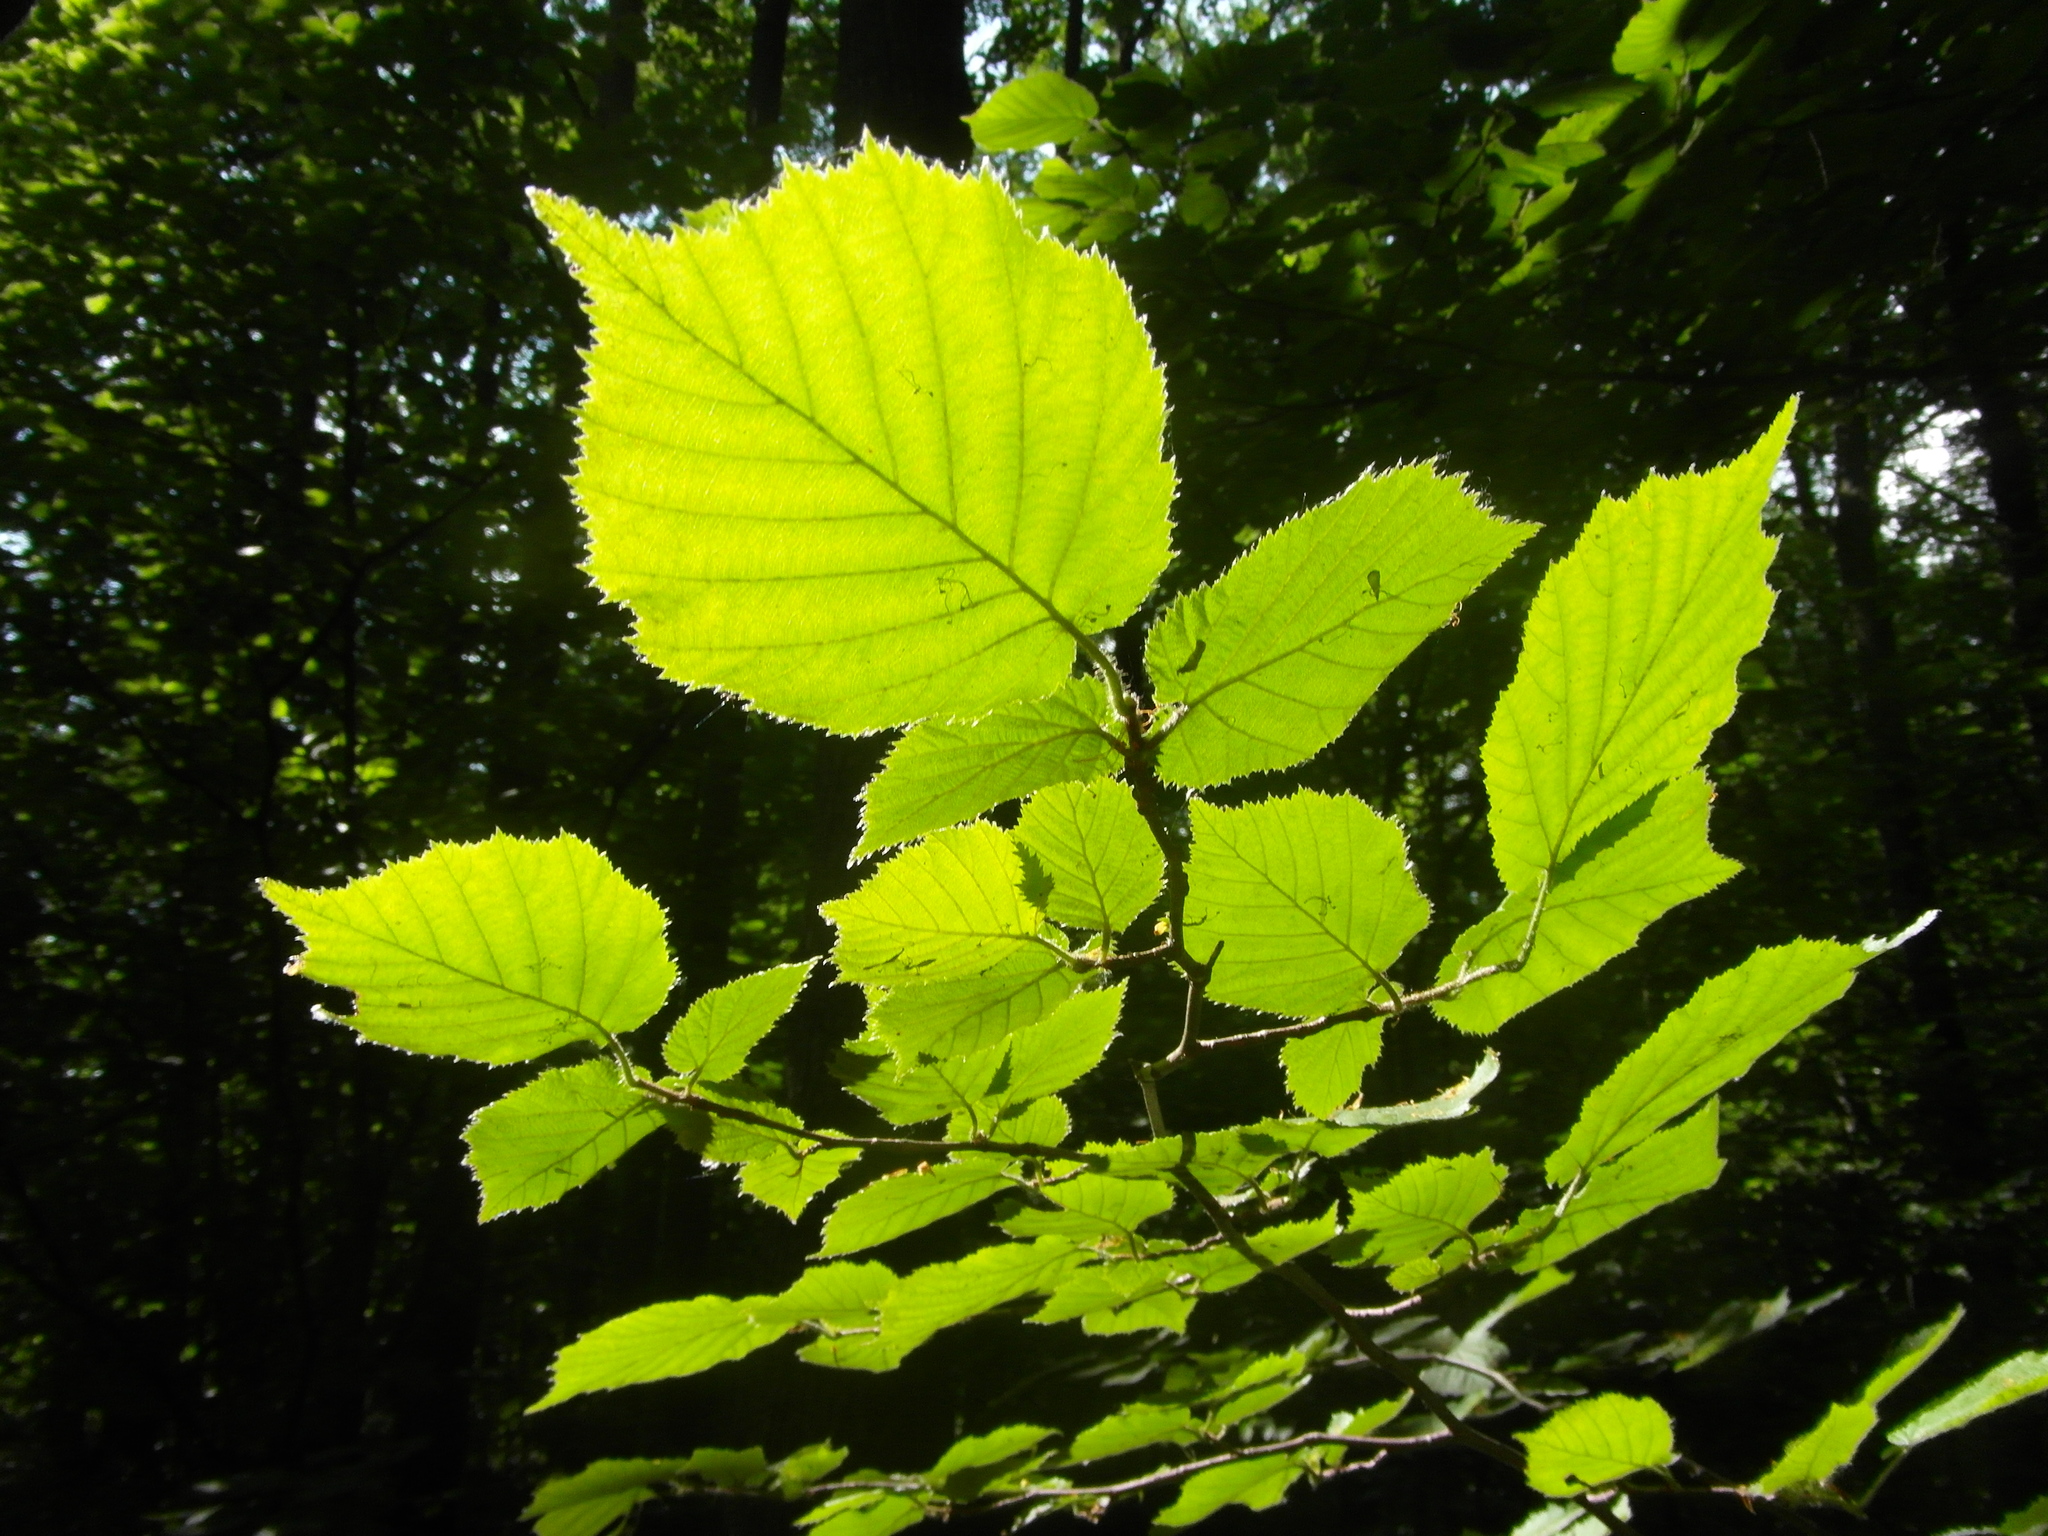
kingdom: Plantae
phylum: Tracheophyta
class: Magnoliopsida
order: Fagales
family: Betulaceae
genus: Corylus
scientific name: Corylus avellana
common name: European hazel
